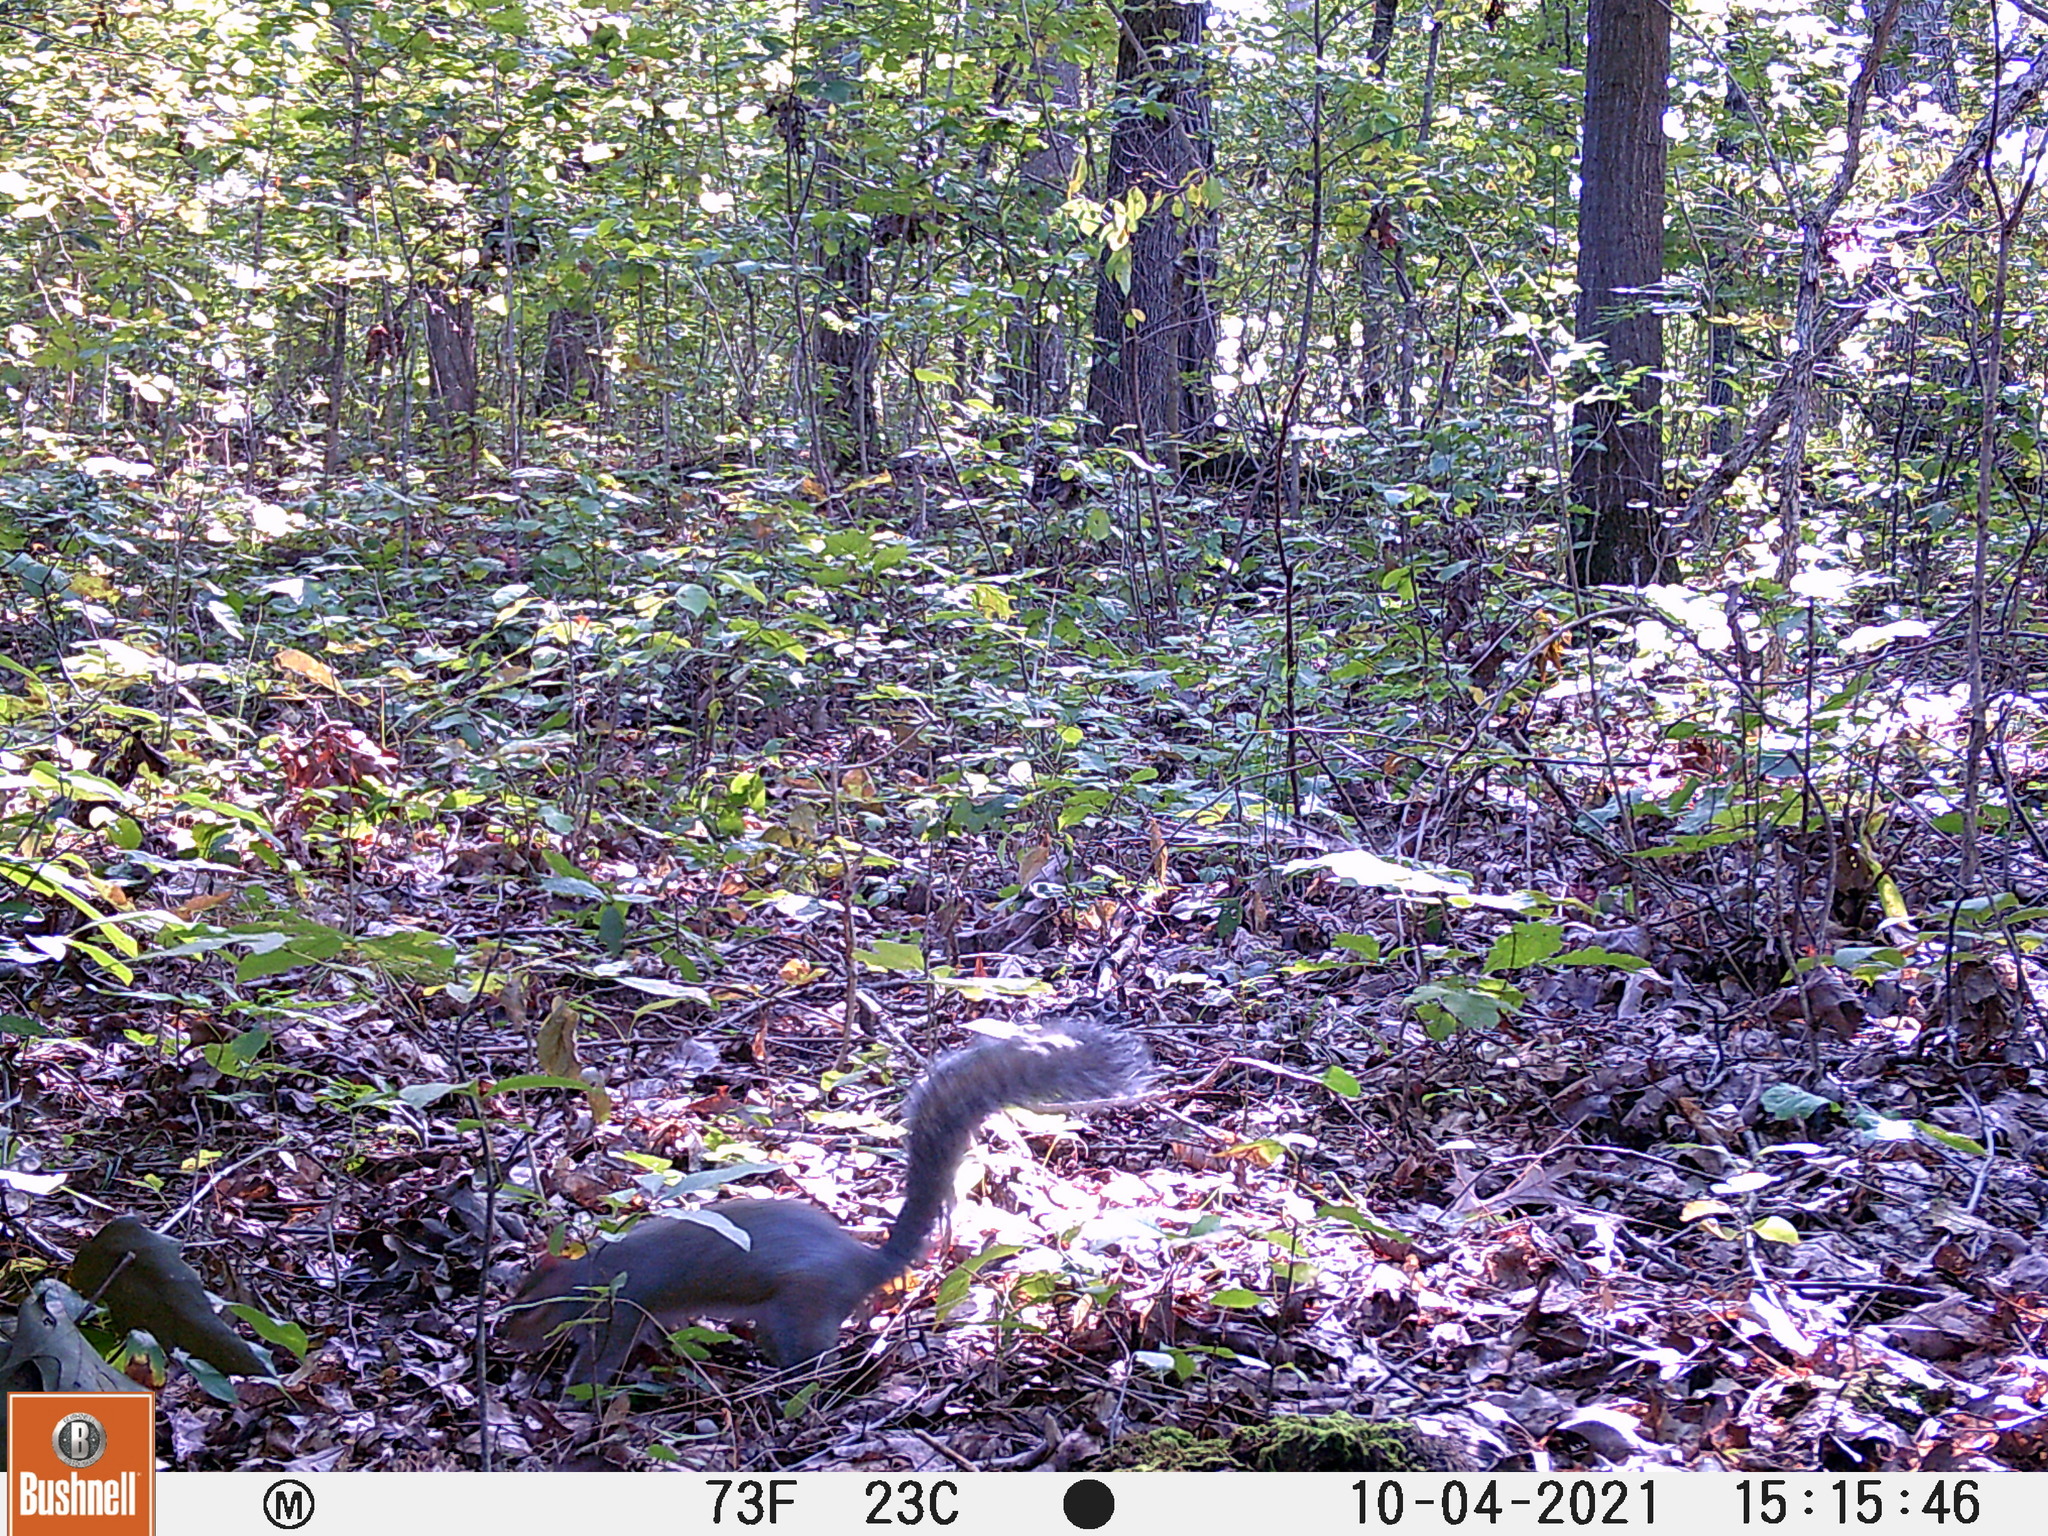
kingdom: Animalia
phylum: Chordata
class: Mammalia
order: Rodentia
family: Sciuridae
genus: Sciurus
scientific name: Sciurus carolinensis
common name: Eastern gray squirrel
